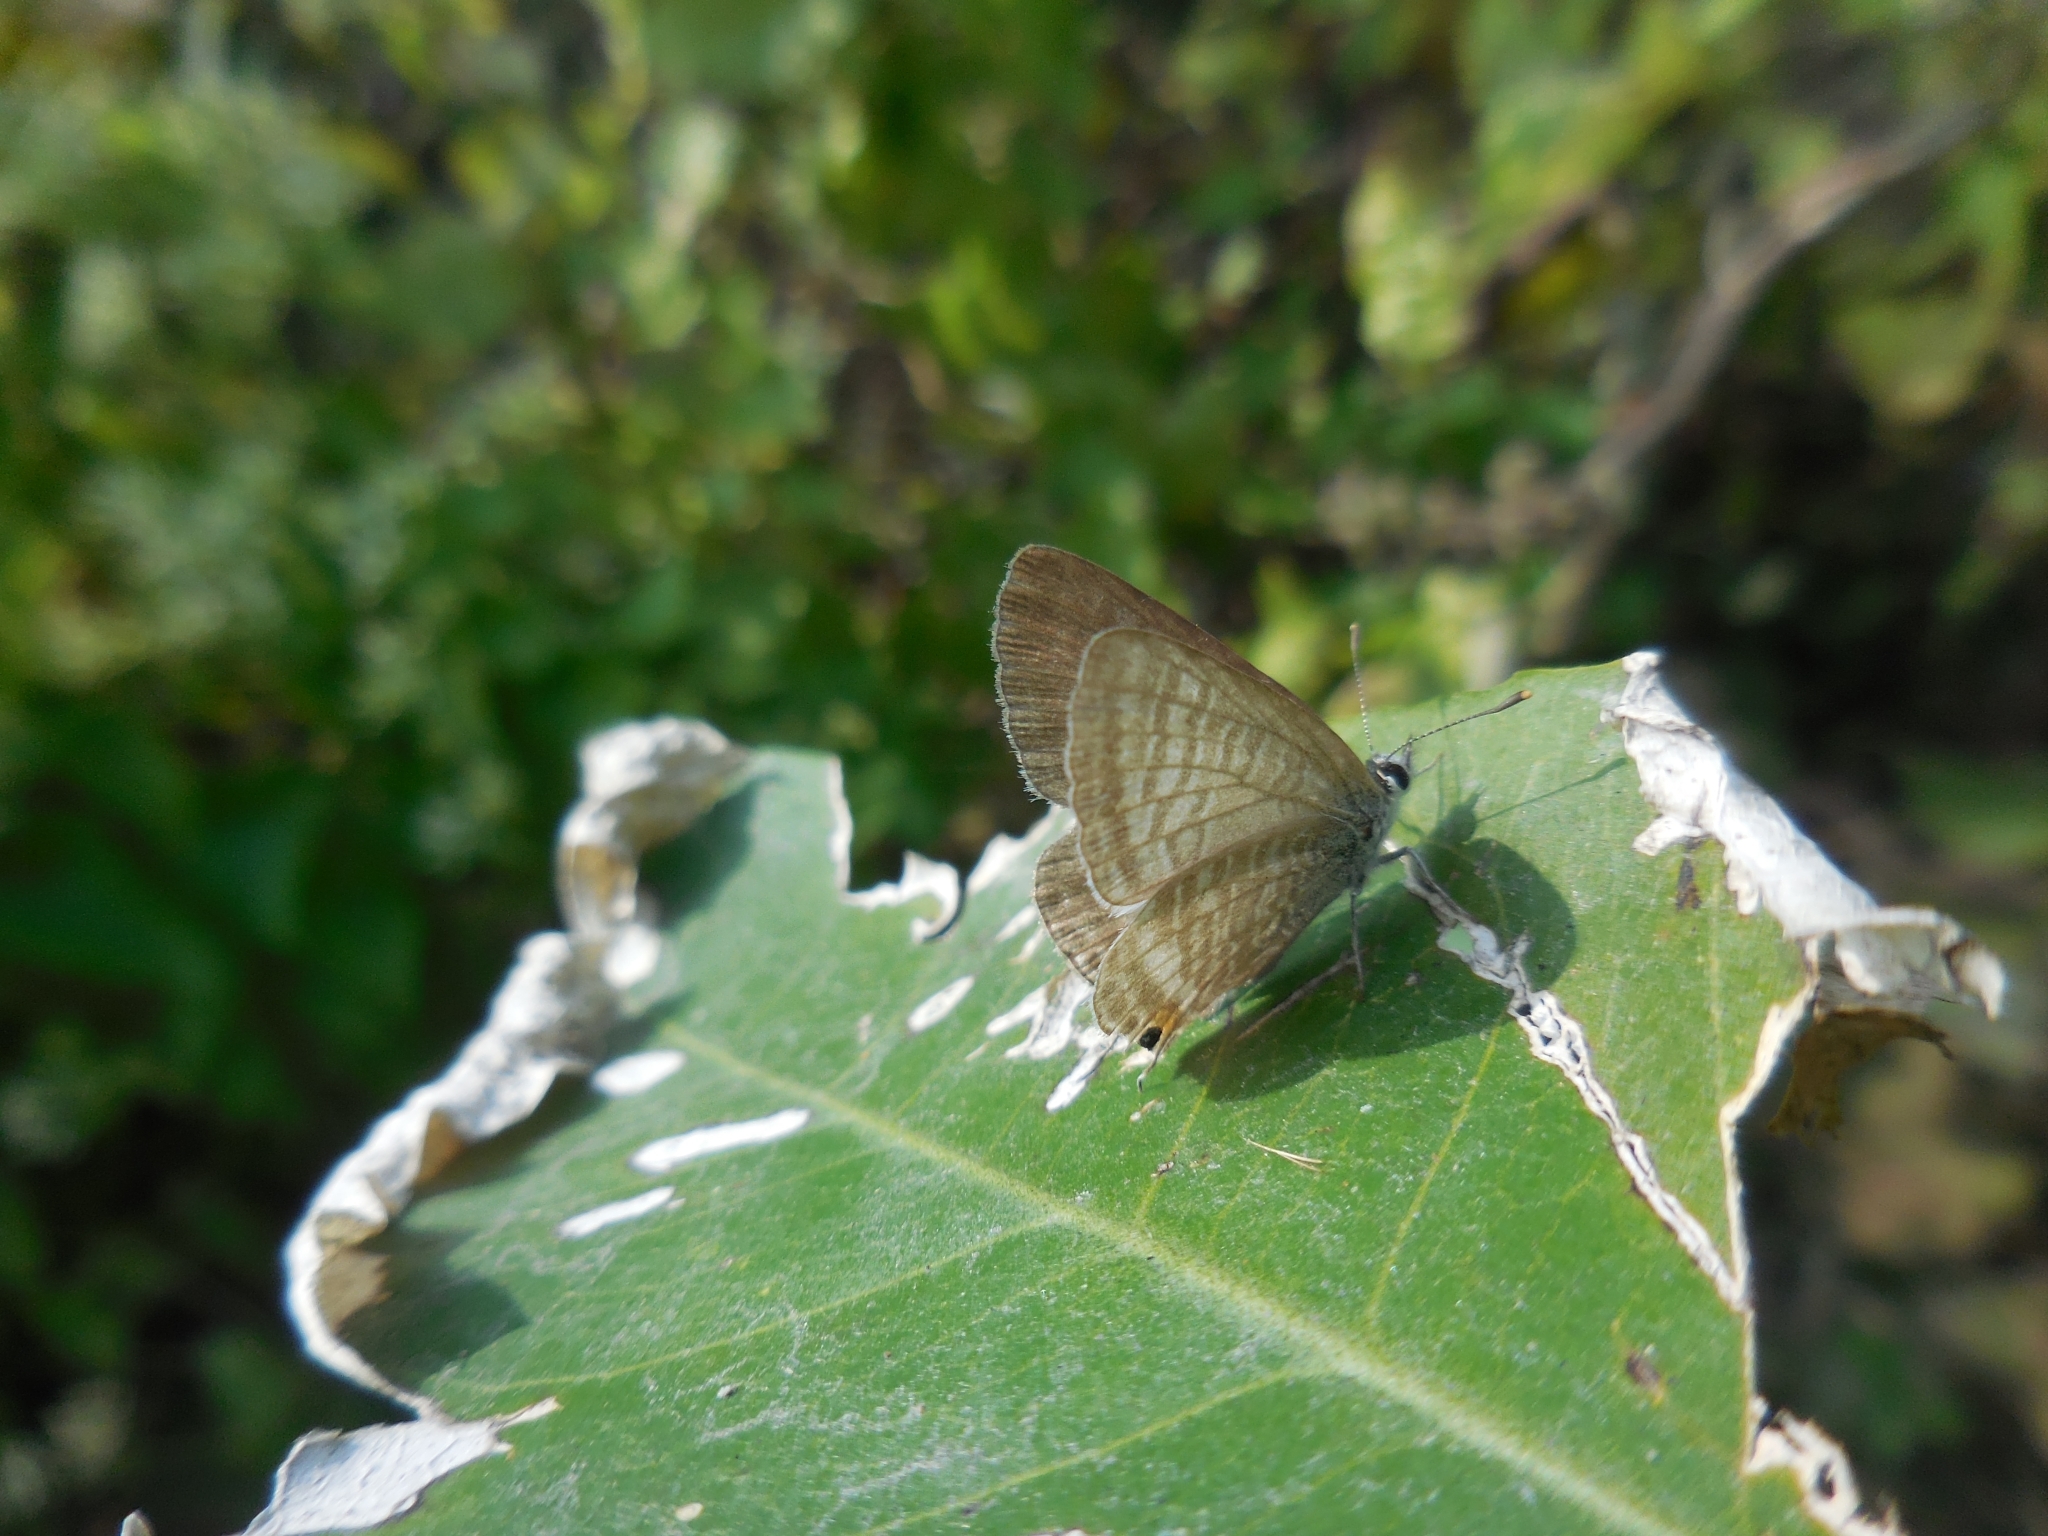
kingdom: Animalia
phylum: Arthropoda
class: Insecta
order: Lepidoptera
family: Lycaenidae
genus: Lampides
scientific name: Lampides boeticus
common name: Long-tailed blue
